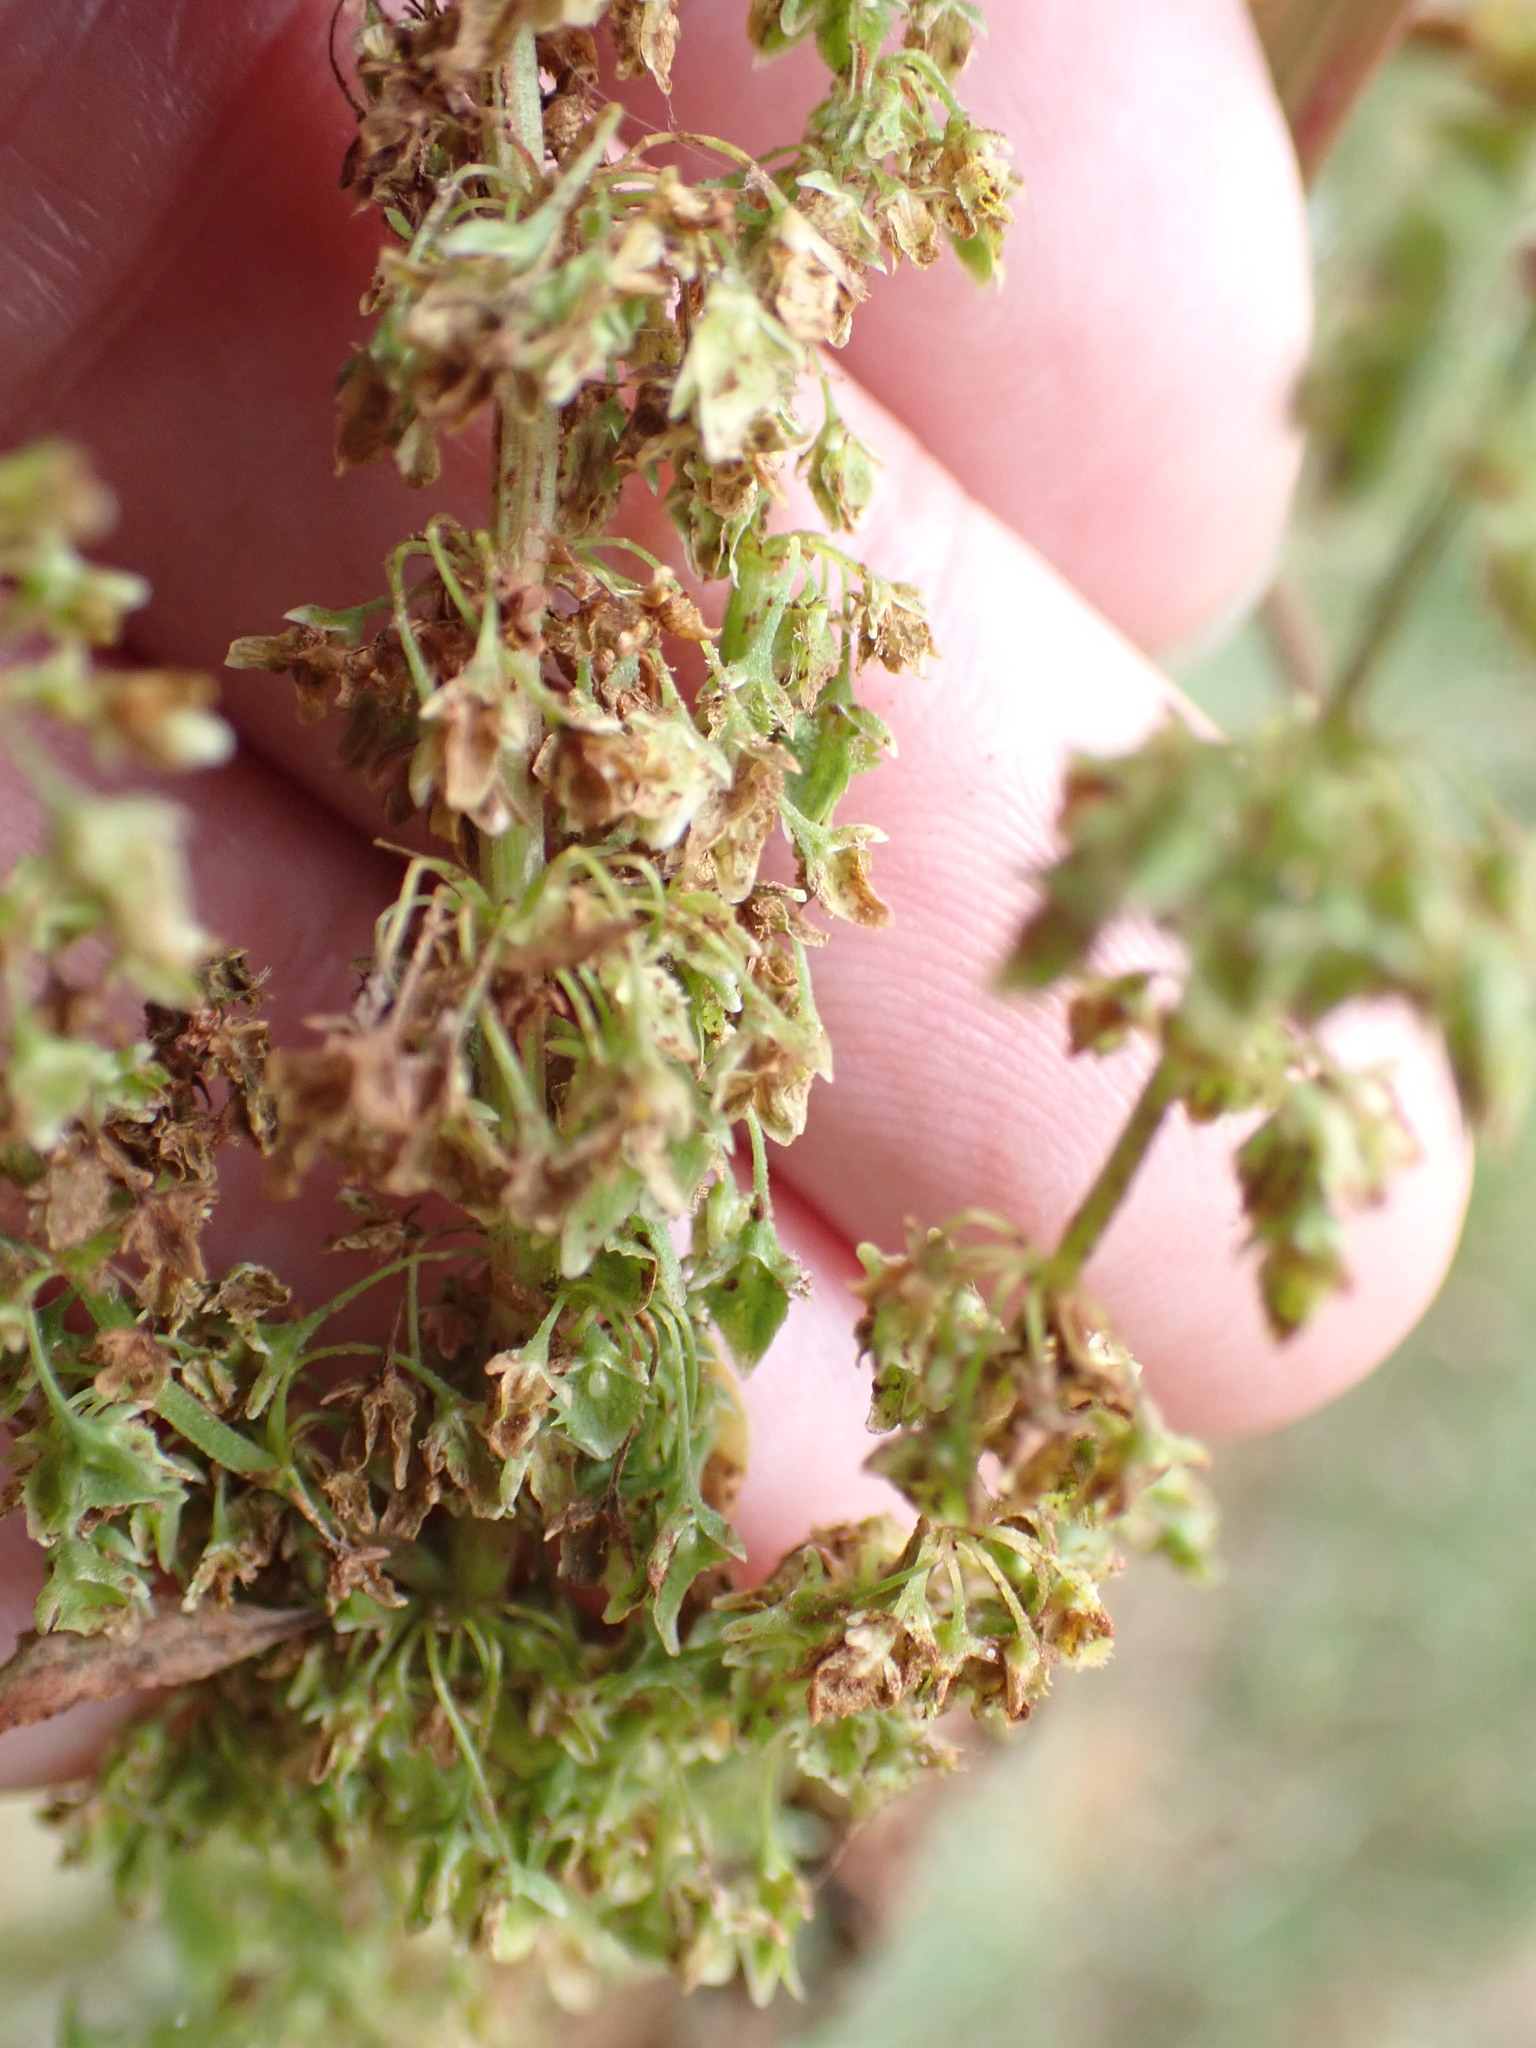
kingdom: Plantae
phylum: Tracheophyta
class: Magnoliopsida
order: Caryophyllales
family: Polygonaceae
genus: Rumex
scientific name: Rumex obtusifolius
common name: Bitter dock
